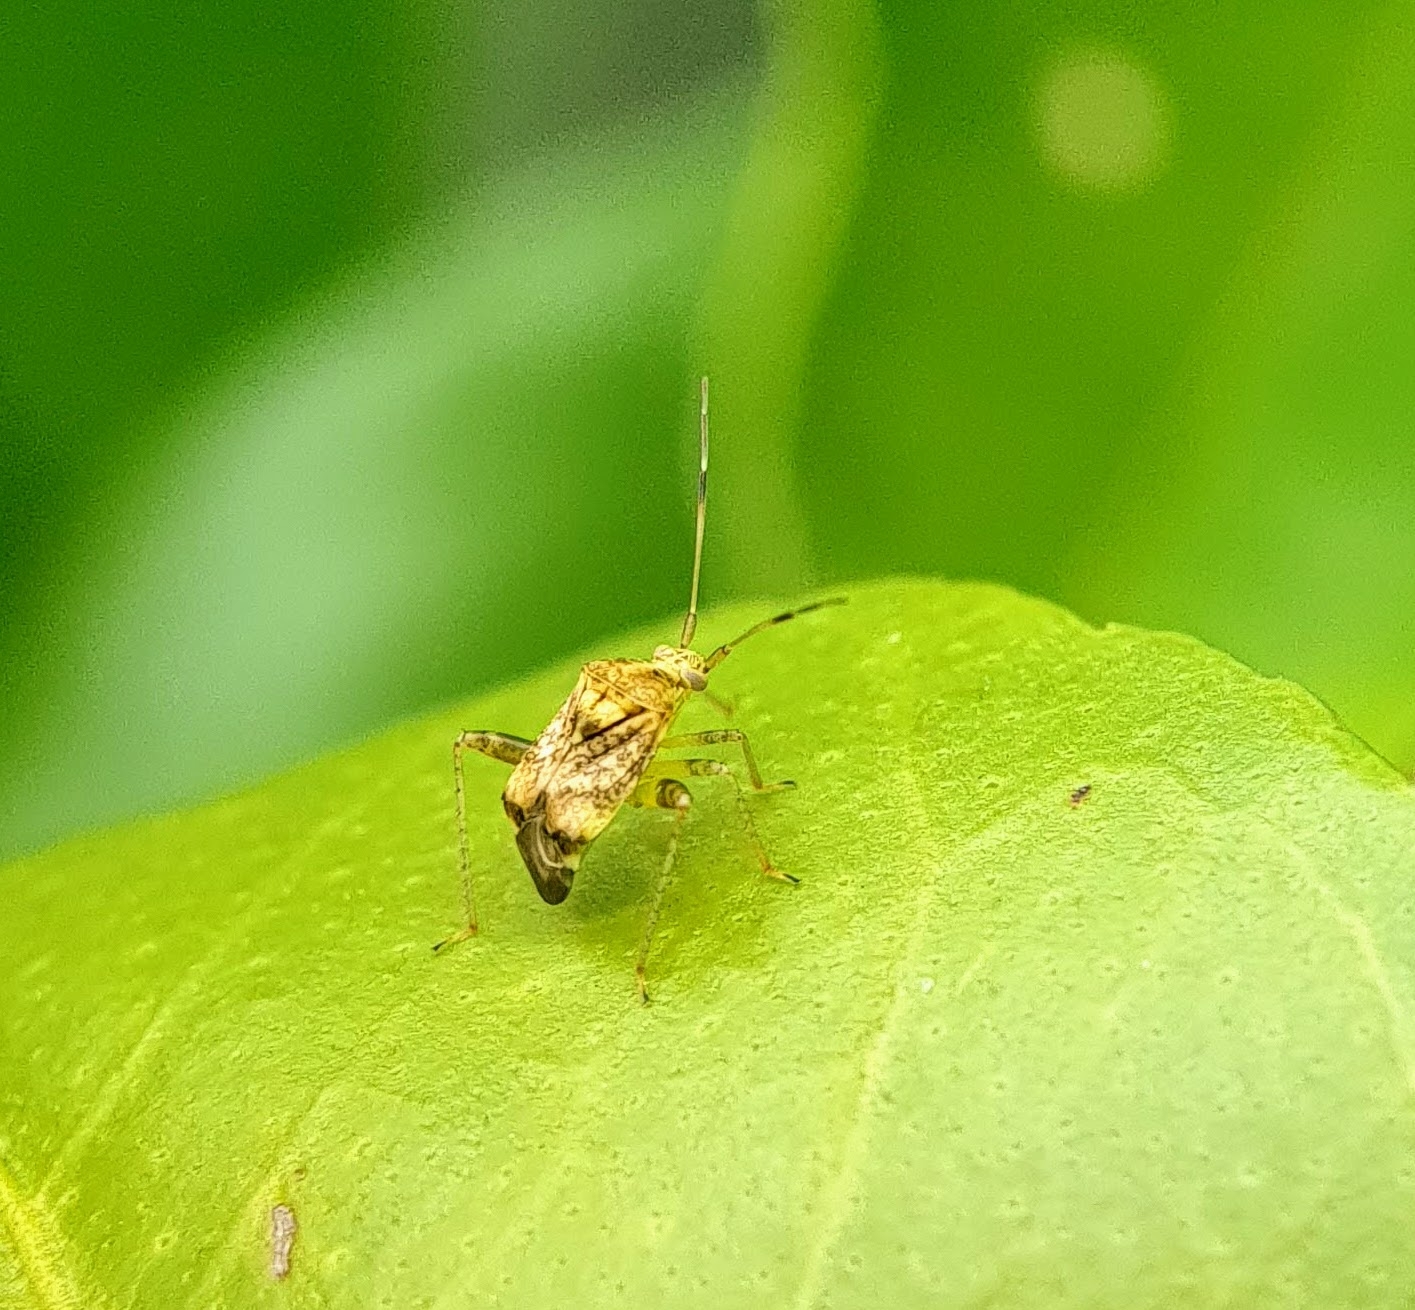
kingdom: Animalia
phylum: Arthropoda
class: Insecta
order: Hemiptera
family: Miridae
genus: Sidnia
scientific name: Sidnia kinbergi
